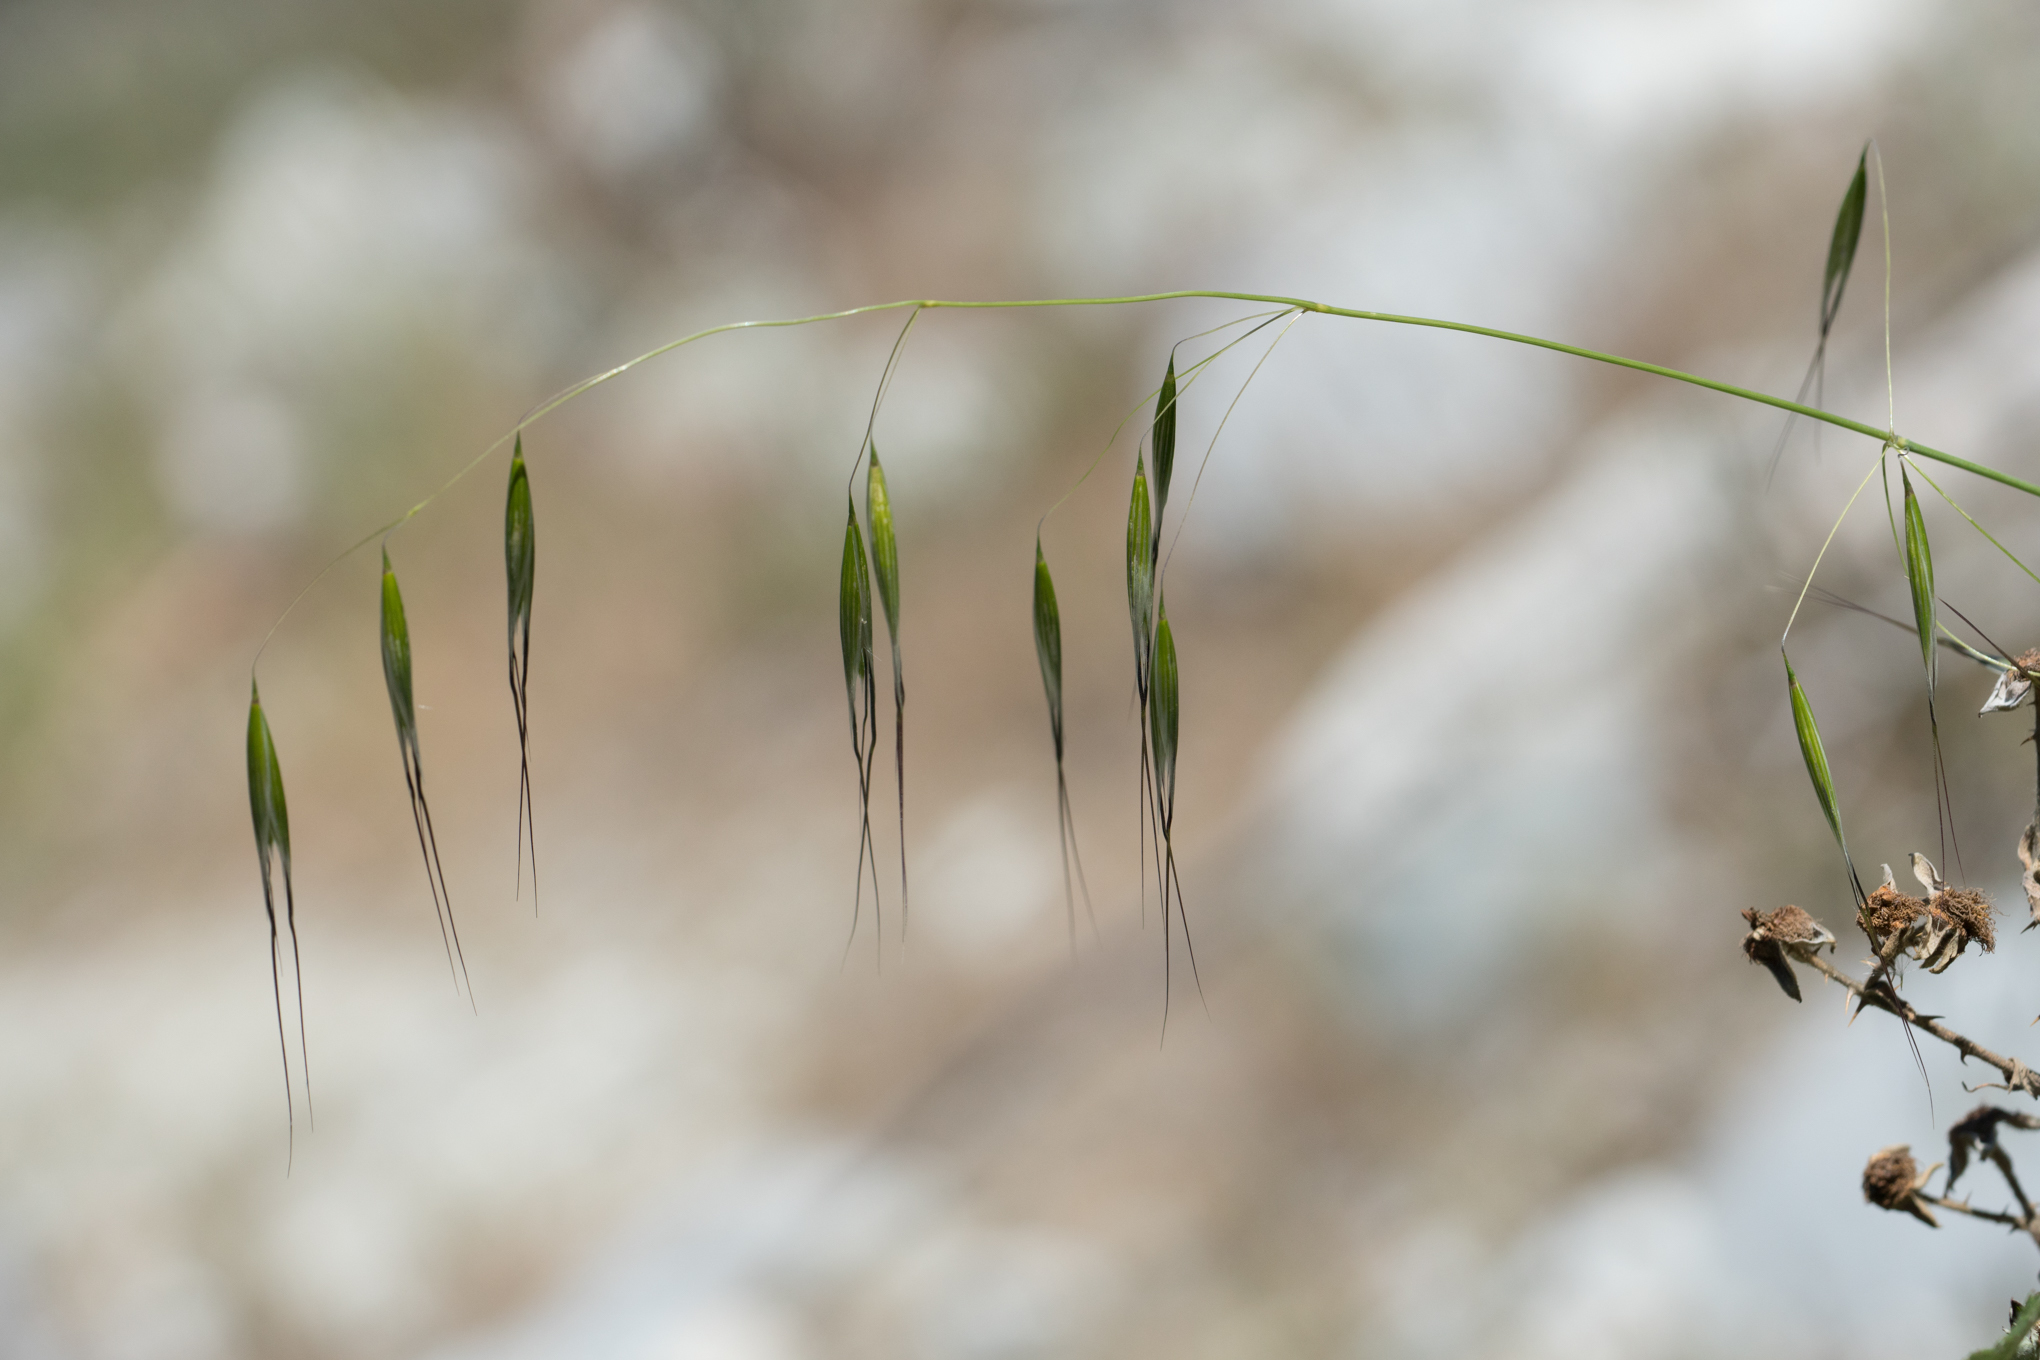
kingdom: Plantae
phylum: Tracheophyta
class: Liliopsida
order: Poales
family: Poaceae
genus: Avena
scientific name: Avena barbata
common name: Slender oat
